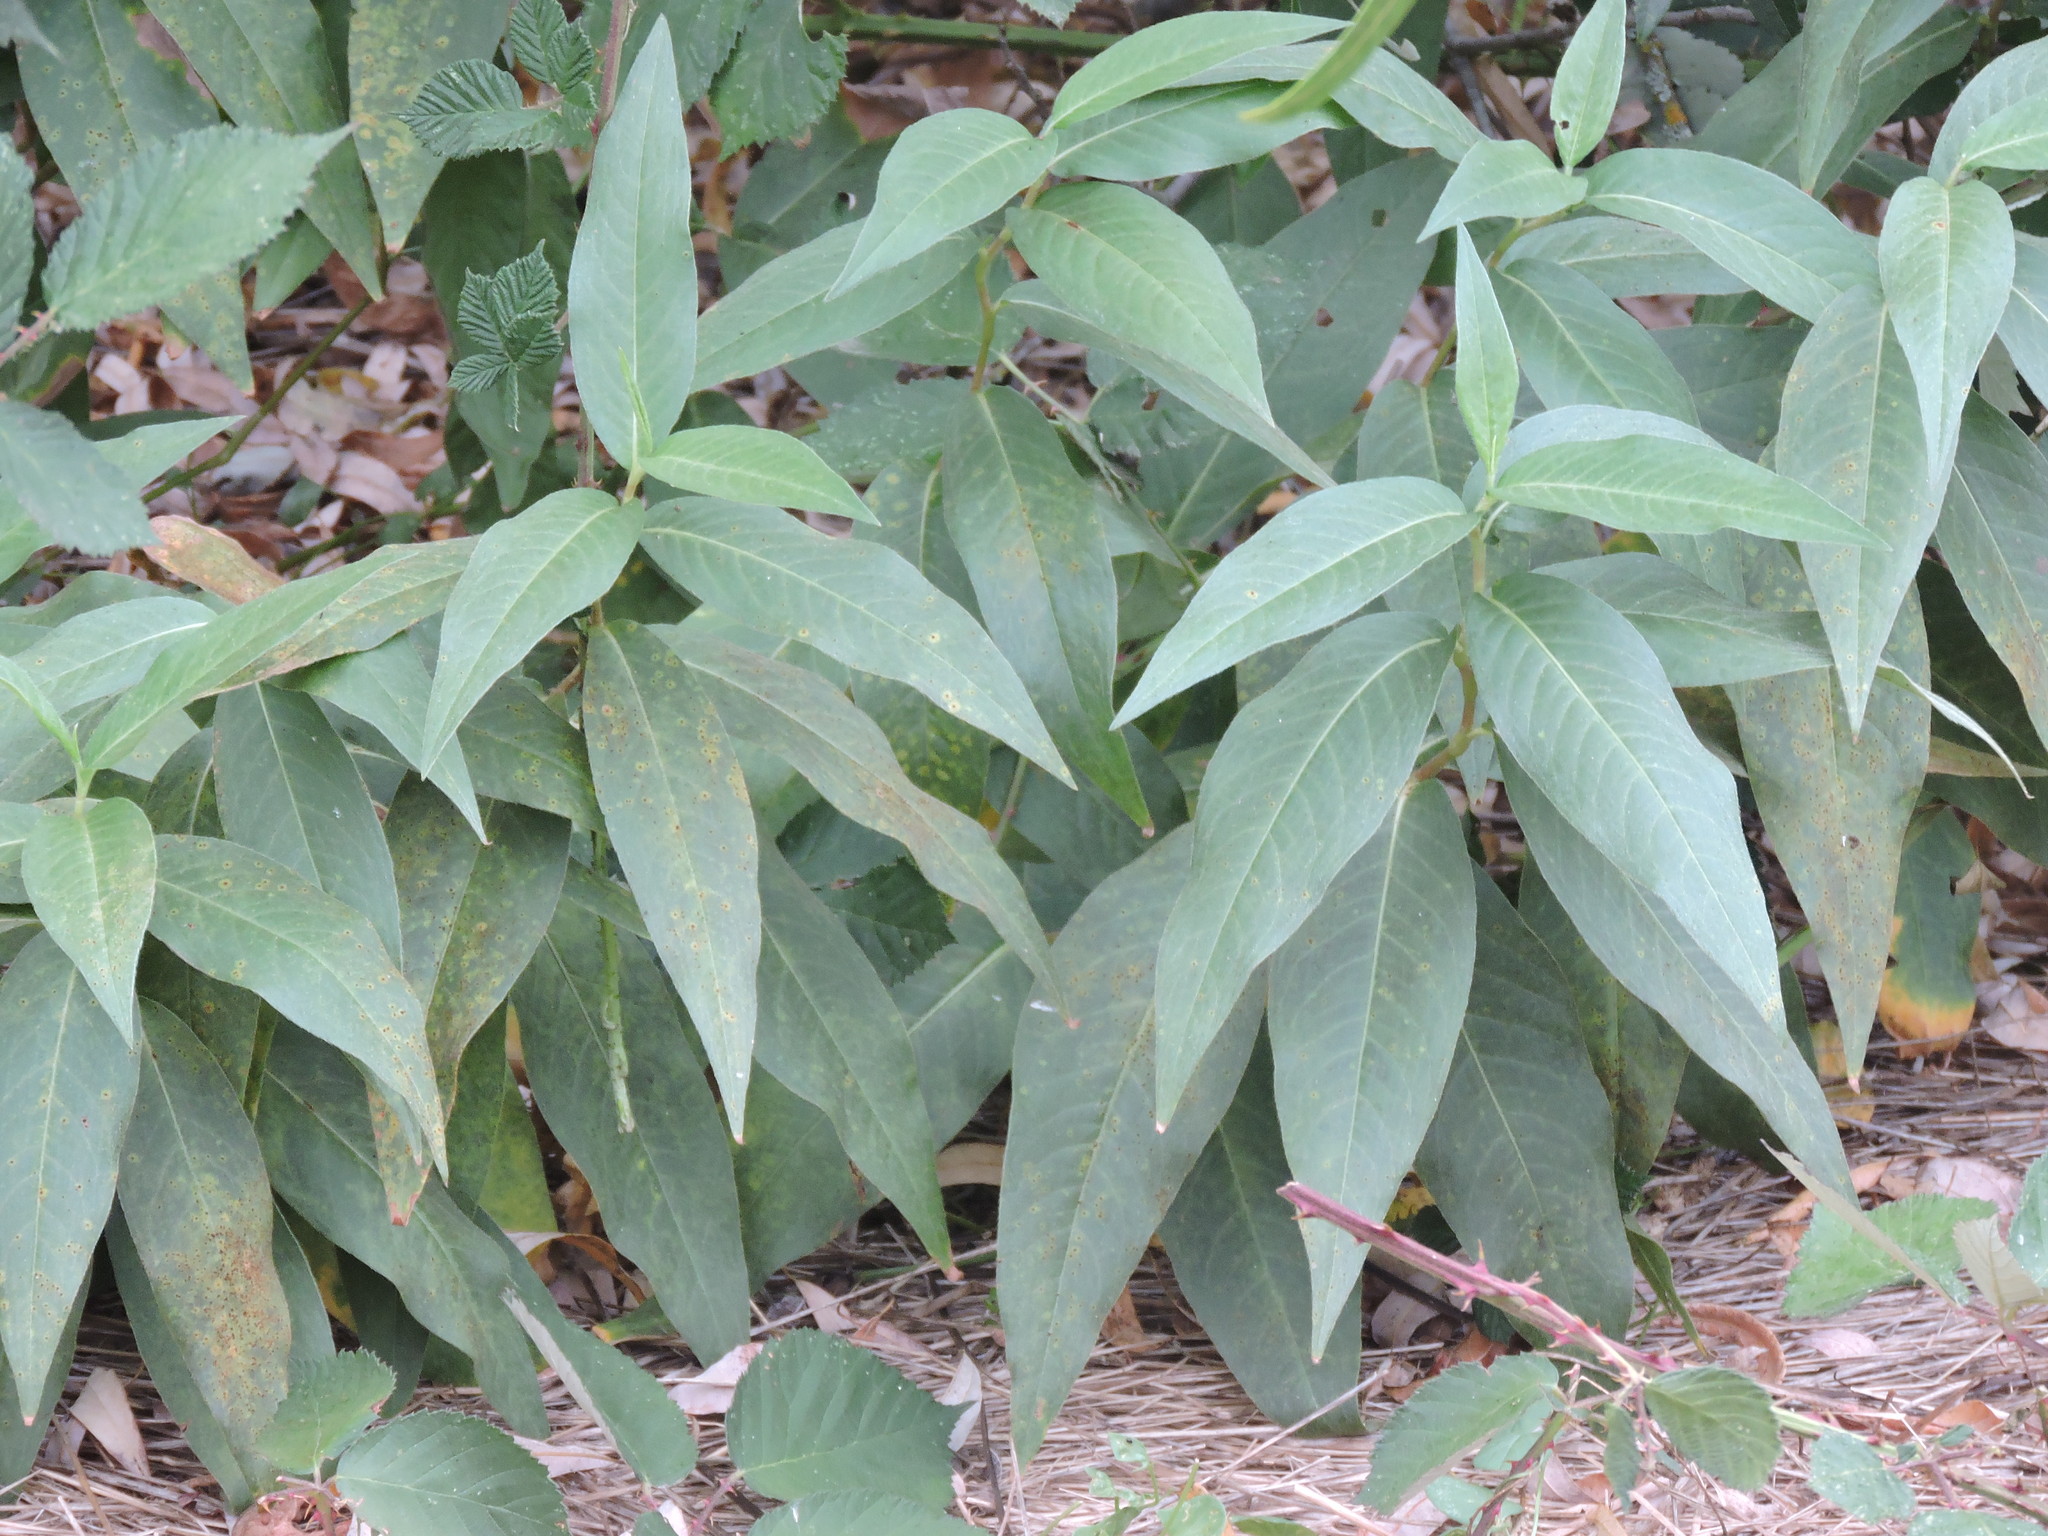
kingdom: Plantae
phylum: Tracheophyta
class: Magnoliopsida
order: Caryophyllales
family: Polygonaceae
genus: Persicaria
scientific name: Persicaria amphibia
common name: Amphibious bistort
